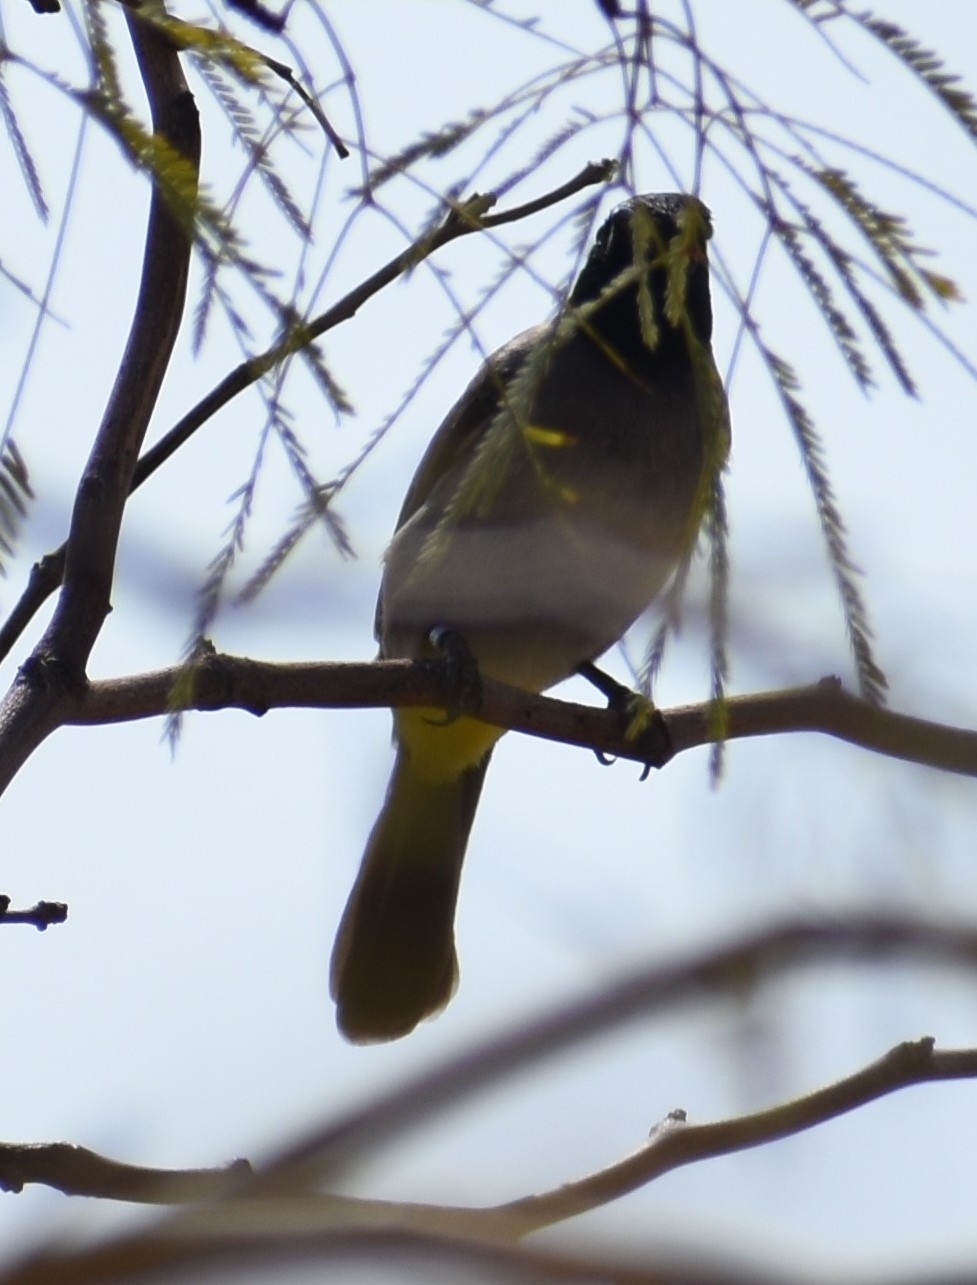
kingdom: Animalia
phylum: Chordata
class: Aves
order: Passeriformes
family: Pycnonotidae
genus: Pycnonotus
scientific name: Pycnonotus xanthopygos
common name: White-spectacled bulbul
